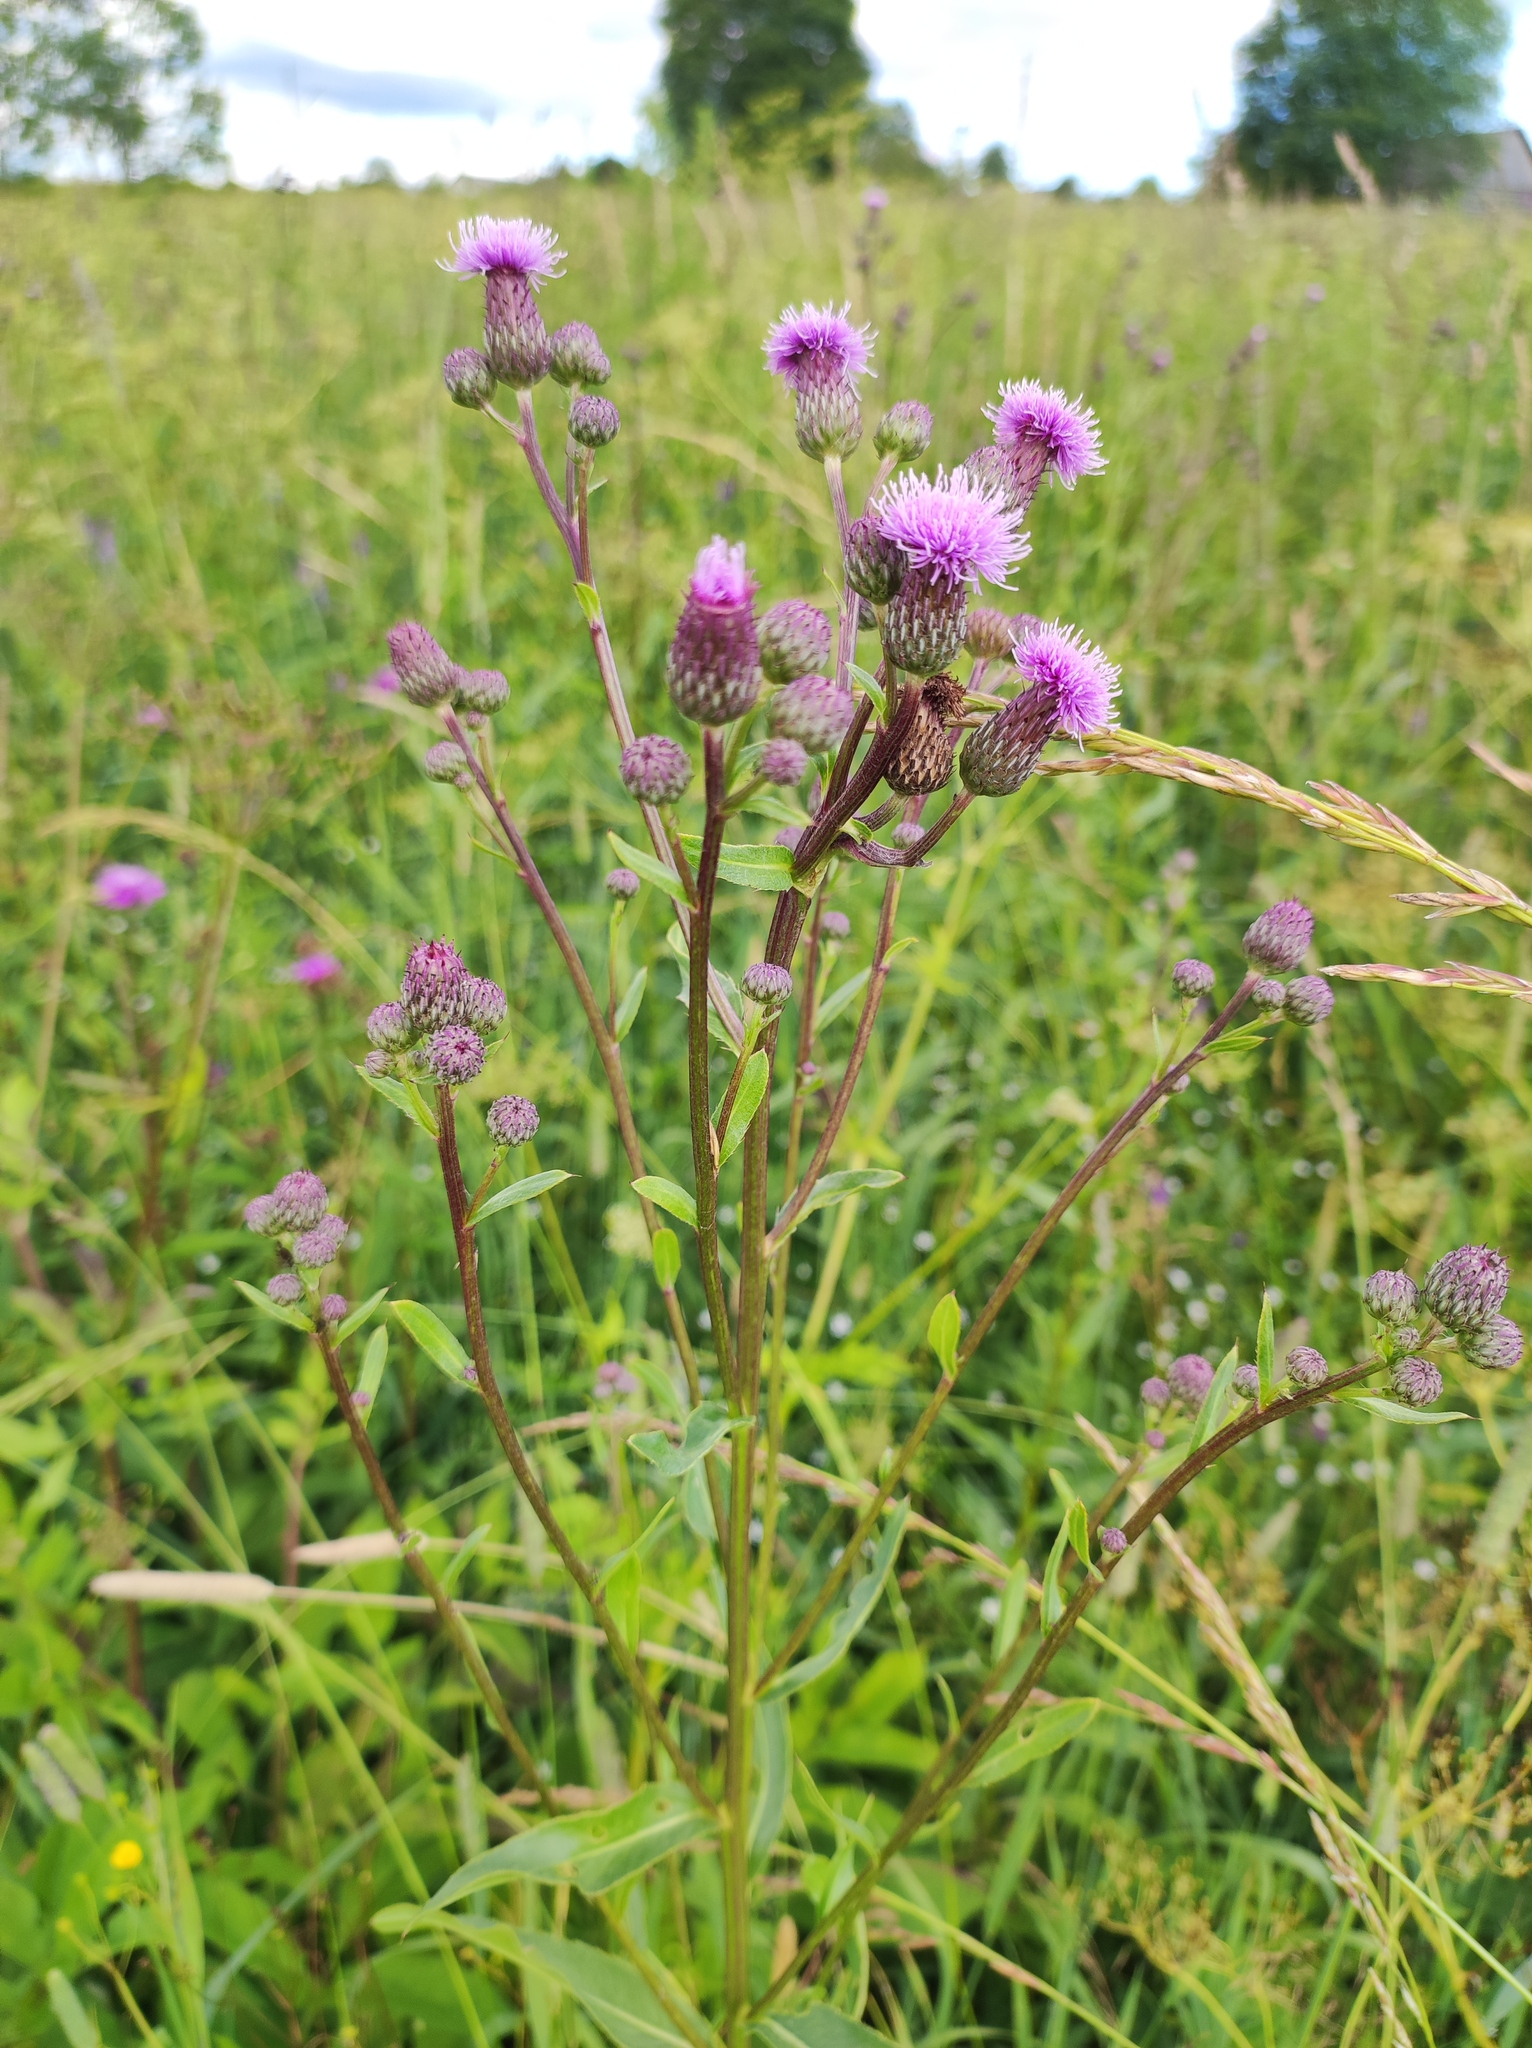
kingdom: Plantae
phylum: Tracheophyta
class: Magnoliopsida
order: Asterales
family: Asteraceae
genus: Cirsium
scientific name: Cirsium arvense
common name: Creeping thistle
